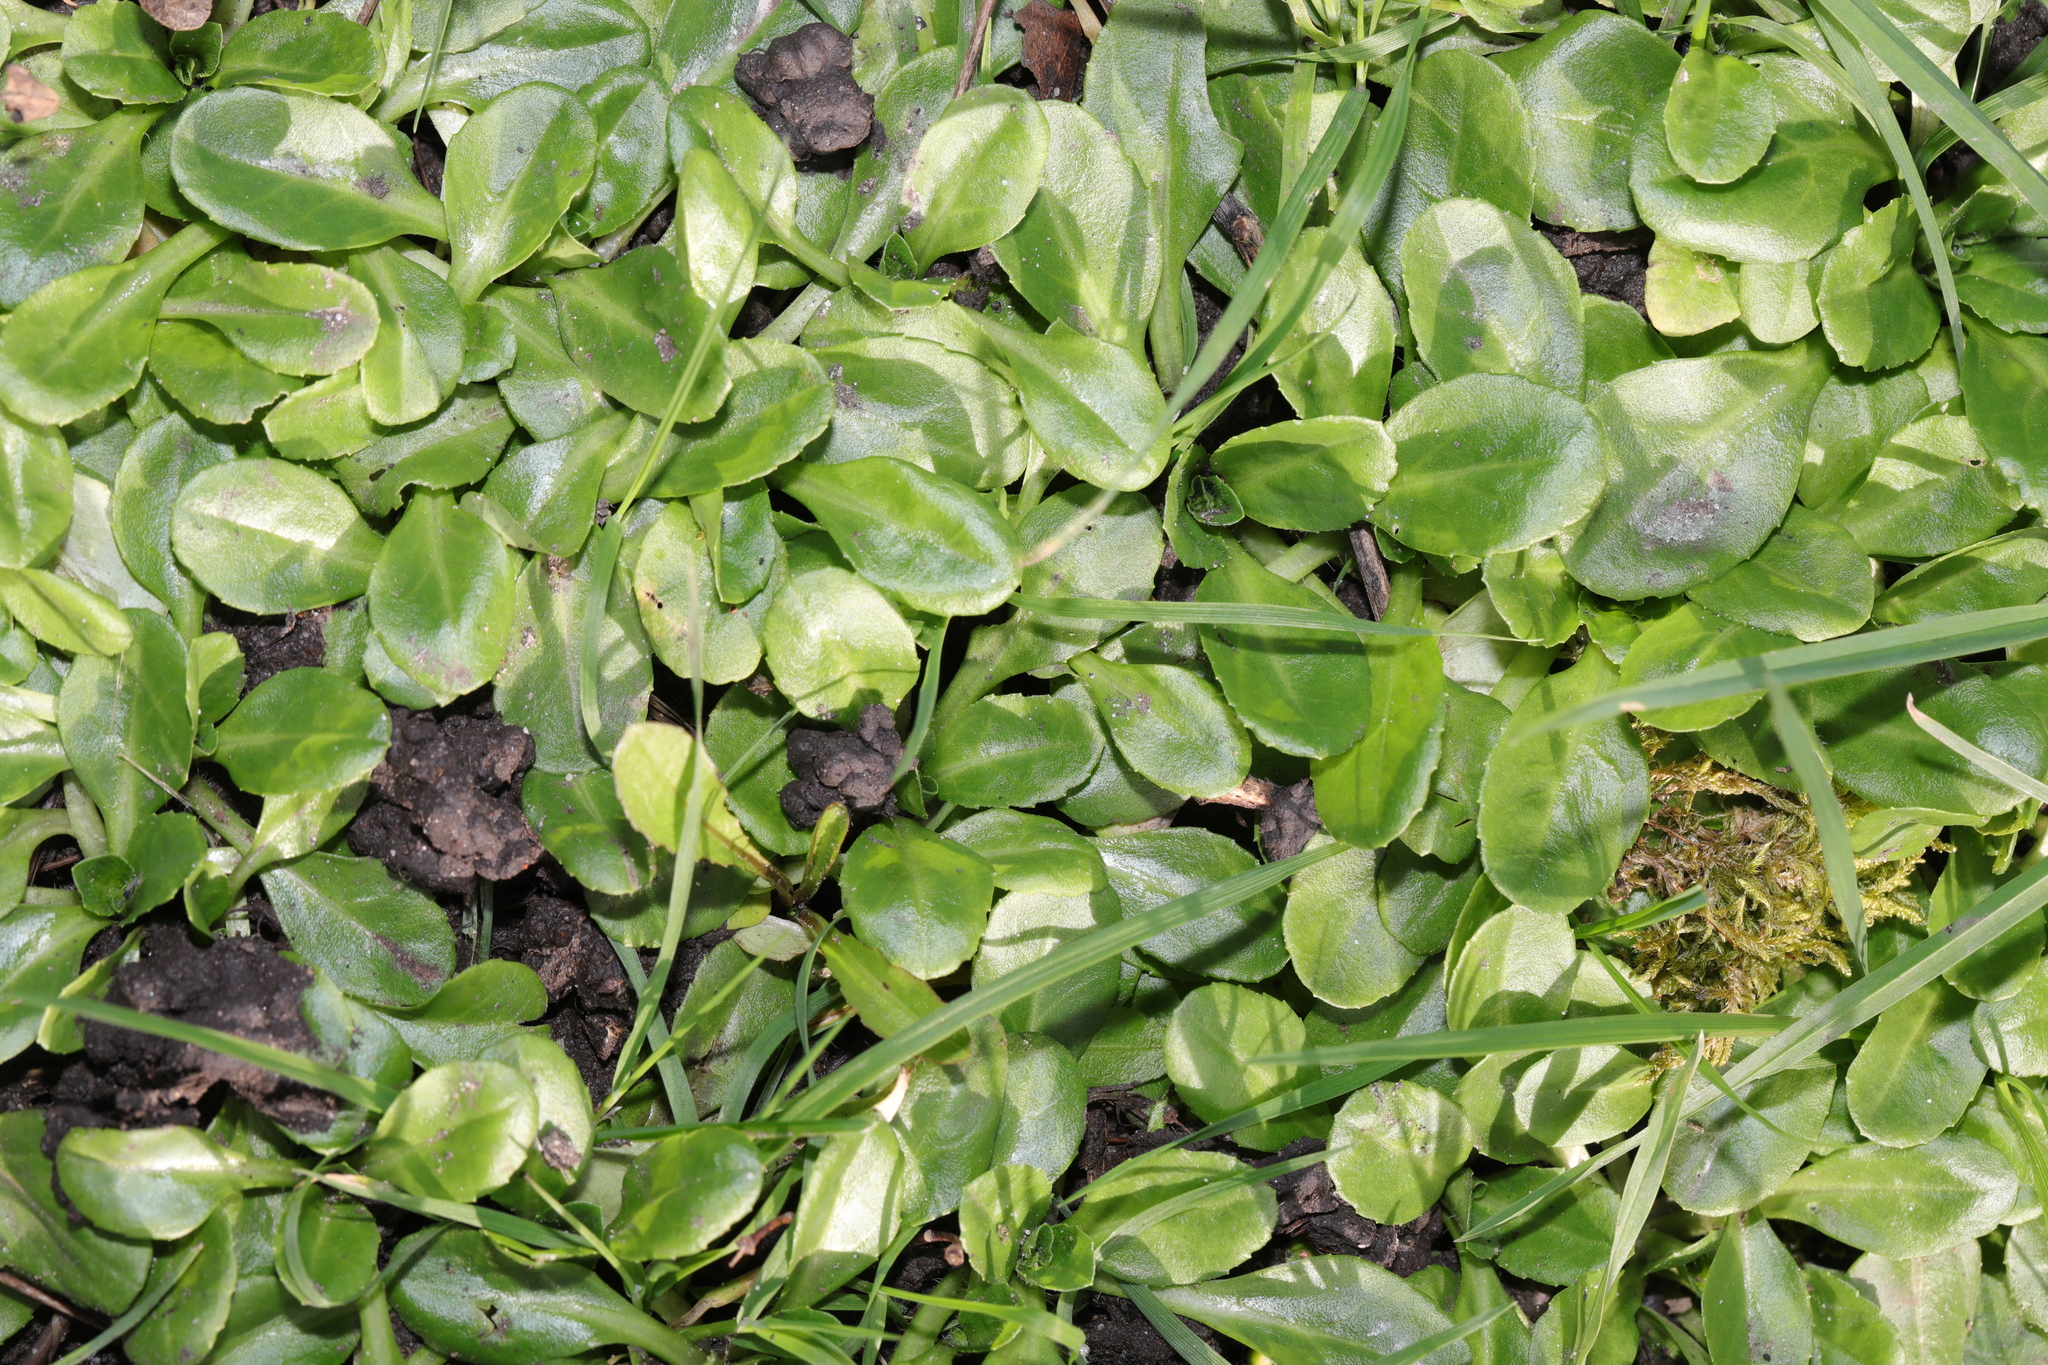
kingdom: Plantae
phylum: Tracheophyta
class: Magnoliopsida
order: Asterales
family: Asteraceae
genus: Bellis
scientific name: Bellis perennis
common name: Lawndaisy
